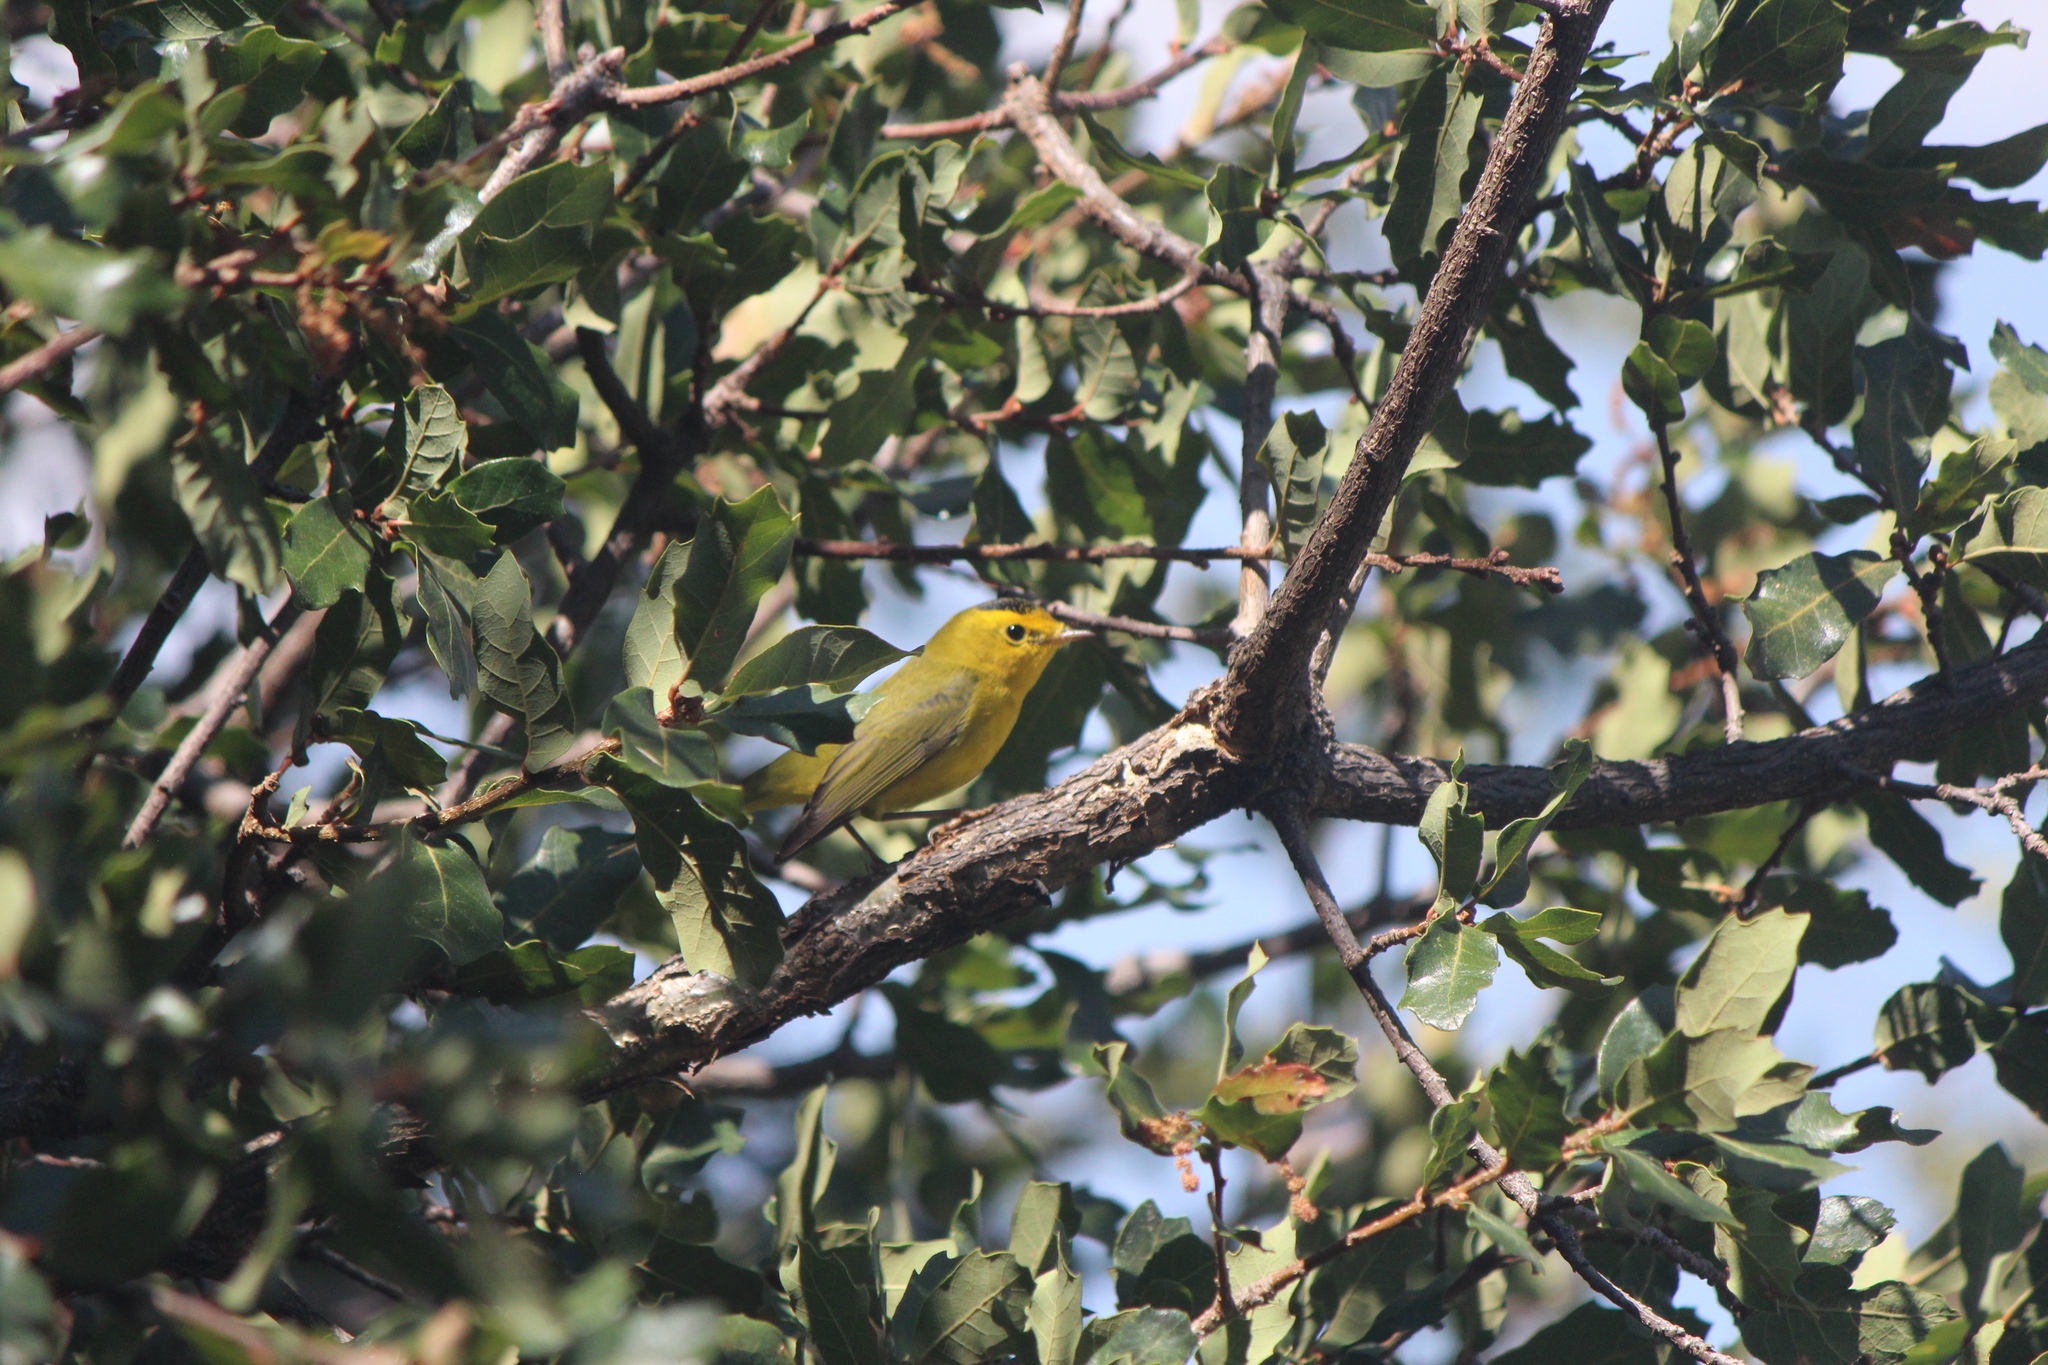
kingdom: Animalia
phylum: Chordata
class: Aves
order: Passeriformes
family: Parulidae
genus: Cardellina
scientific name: Cardellina pusilla
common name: Wilson's warbler
